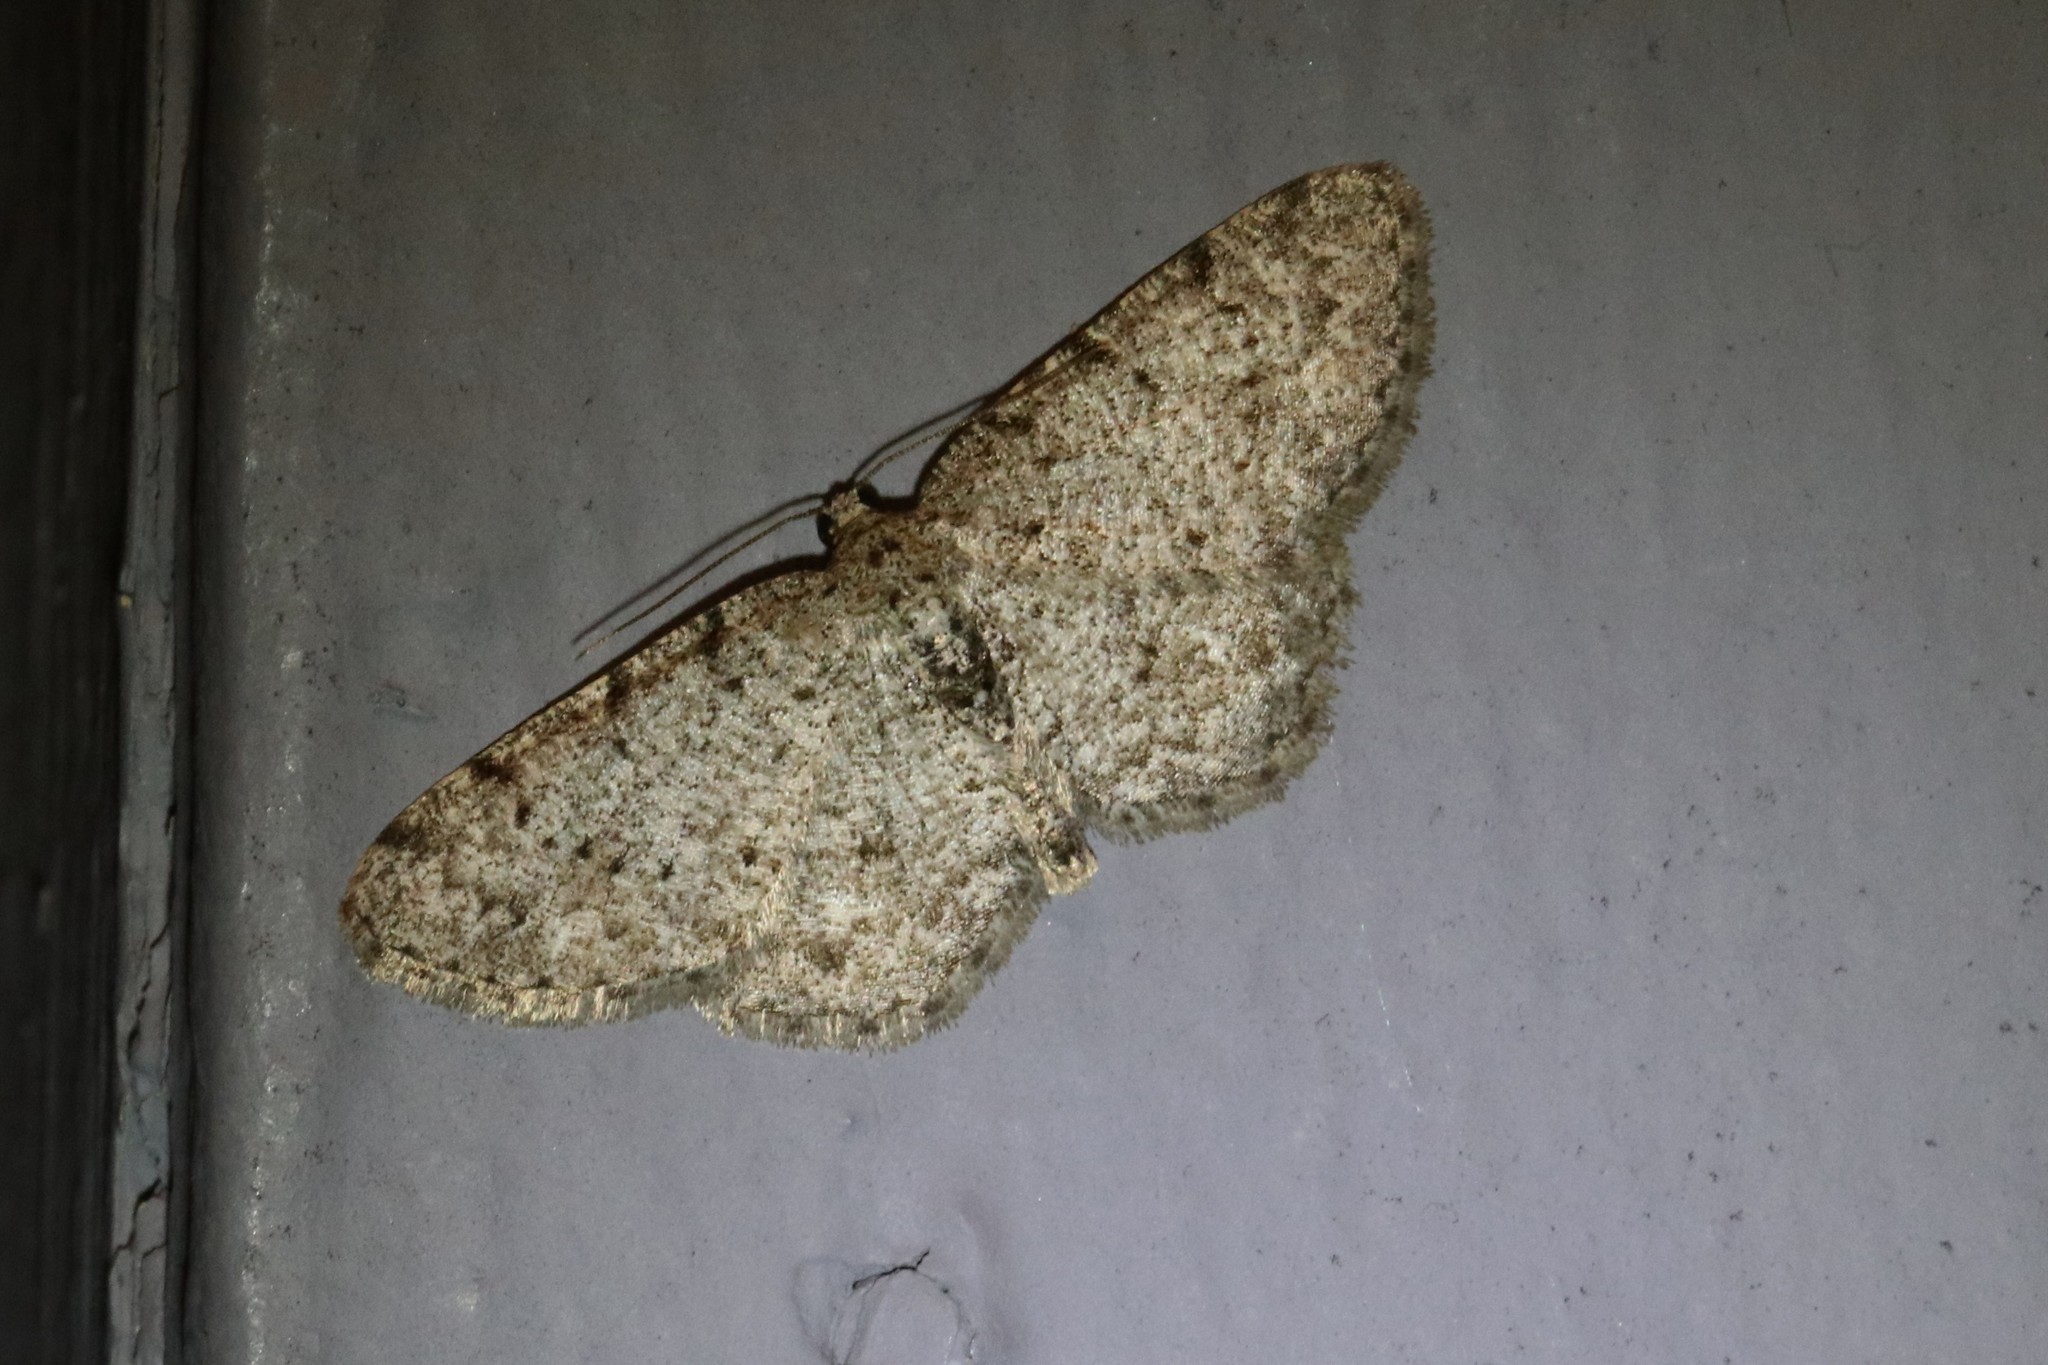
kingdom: Animalia
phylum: Arthropoda
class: Insecta
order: Lepidoptera
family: Geometridae
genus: Aethalura
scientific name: Aethalura intertexta
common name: Four-barred gray
